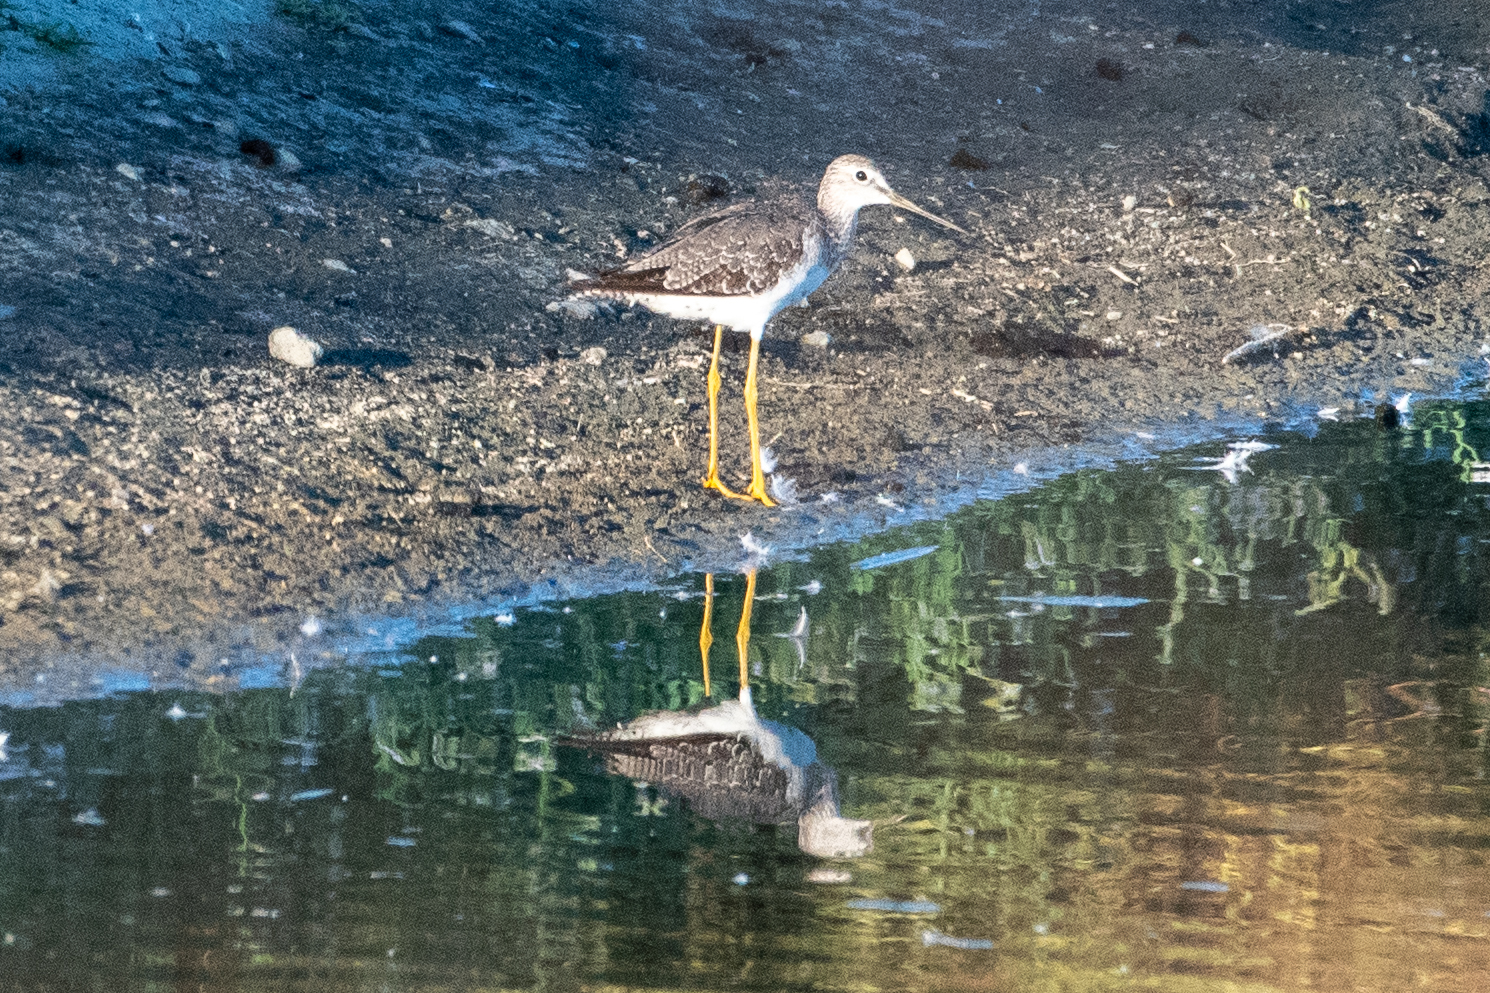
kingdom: Animalia
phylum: Chordata
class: Aves
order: Charadriiformes
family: Scolopacidae
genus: Tringa
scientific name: Tringa melanoleuca
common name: Greater yellowlegs
